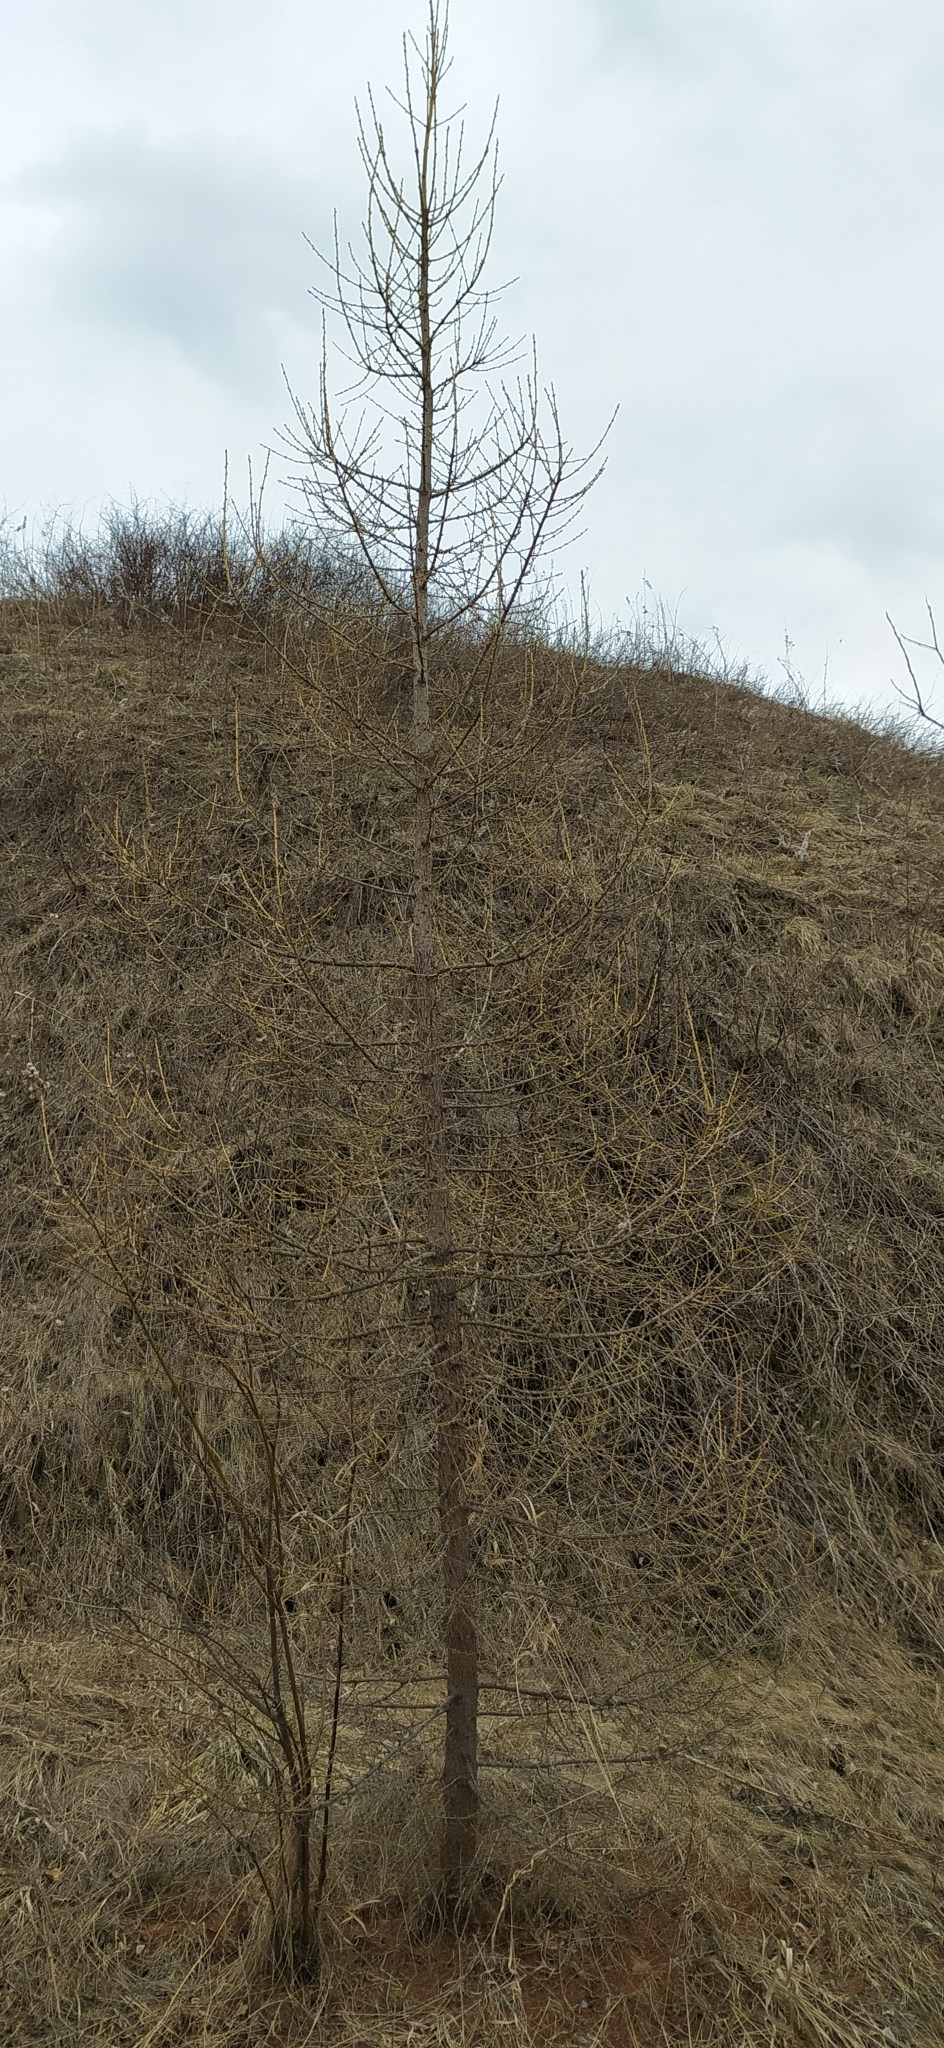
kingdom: Plantae
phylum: Tracheophyta
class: Pinopsida
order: Pinales
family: Pinaceae
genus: Larix
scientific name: Larix sibirica
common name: Siberian larch
